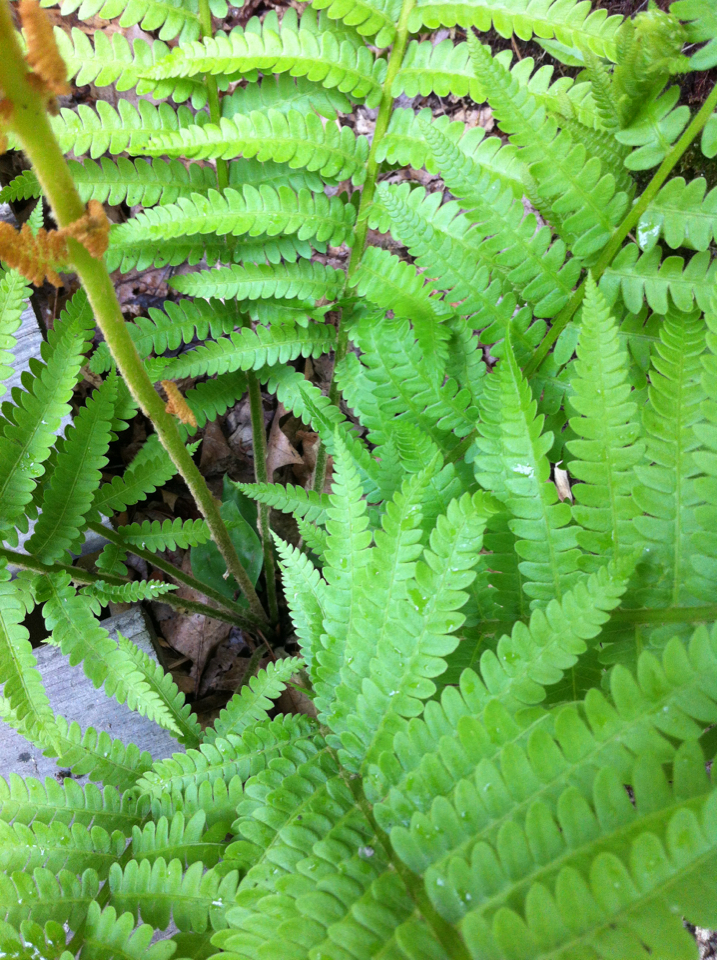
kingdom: Plantae
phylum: Tracheophyta
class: Polypodiopsida
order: Osmundales
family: Osmundaceae
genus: Osmundastrum
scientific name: Osmundastrum cinnamomeum
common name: Cinnamon fern
